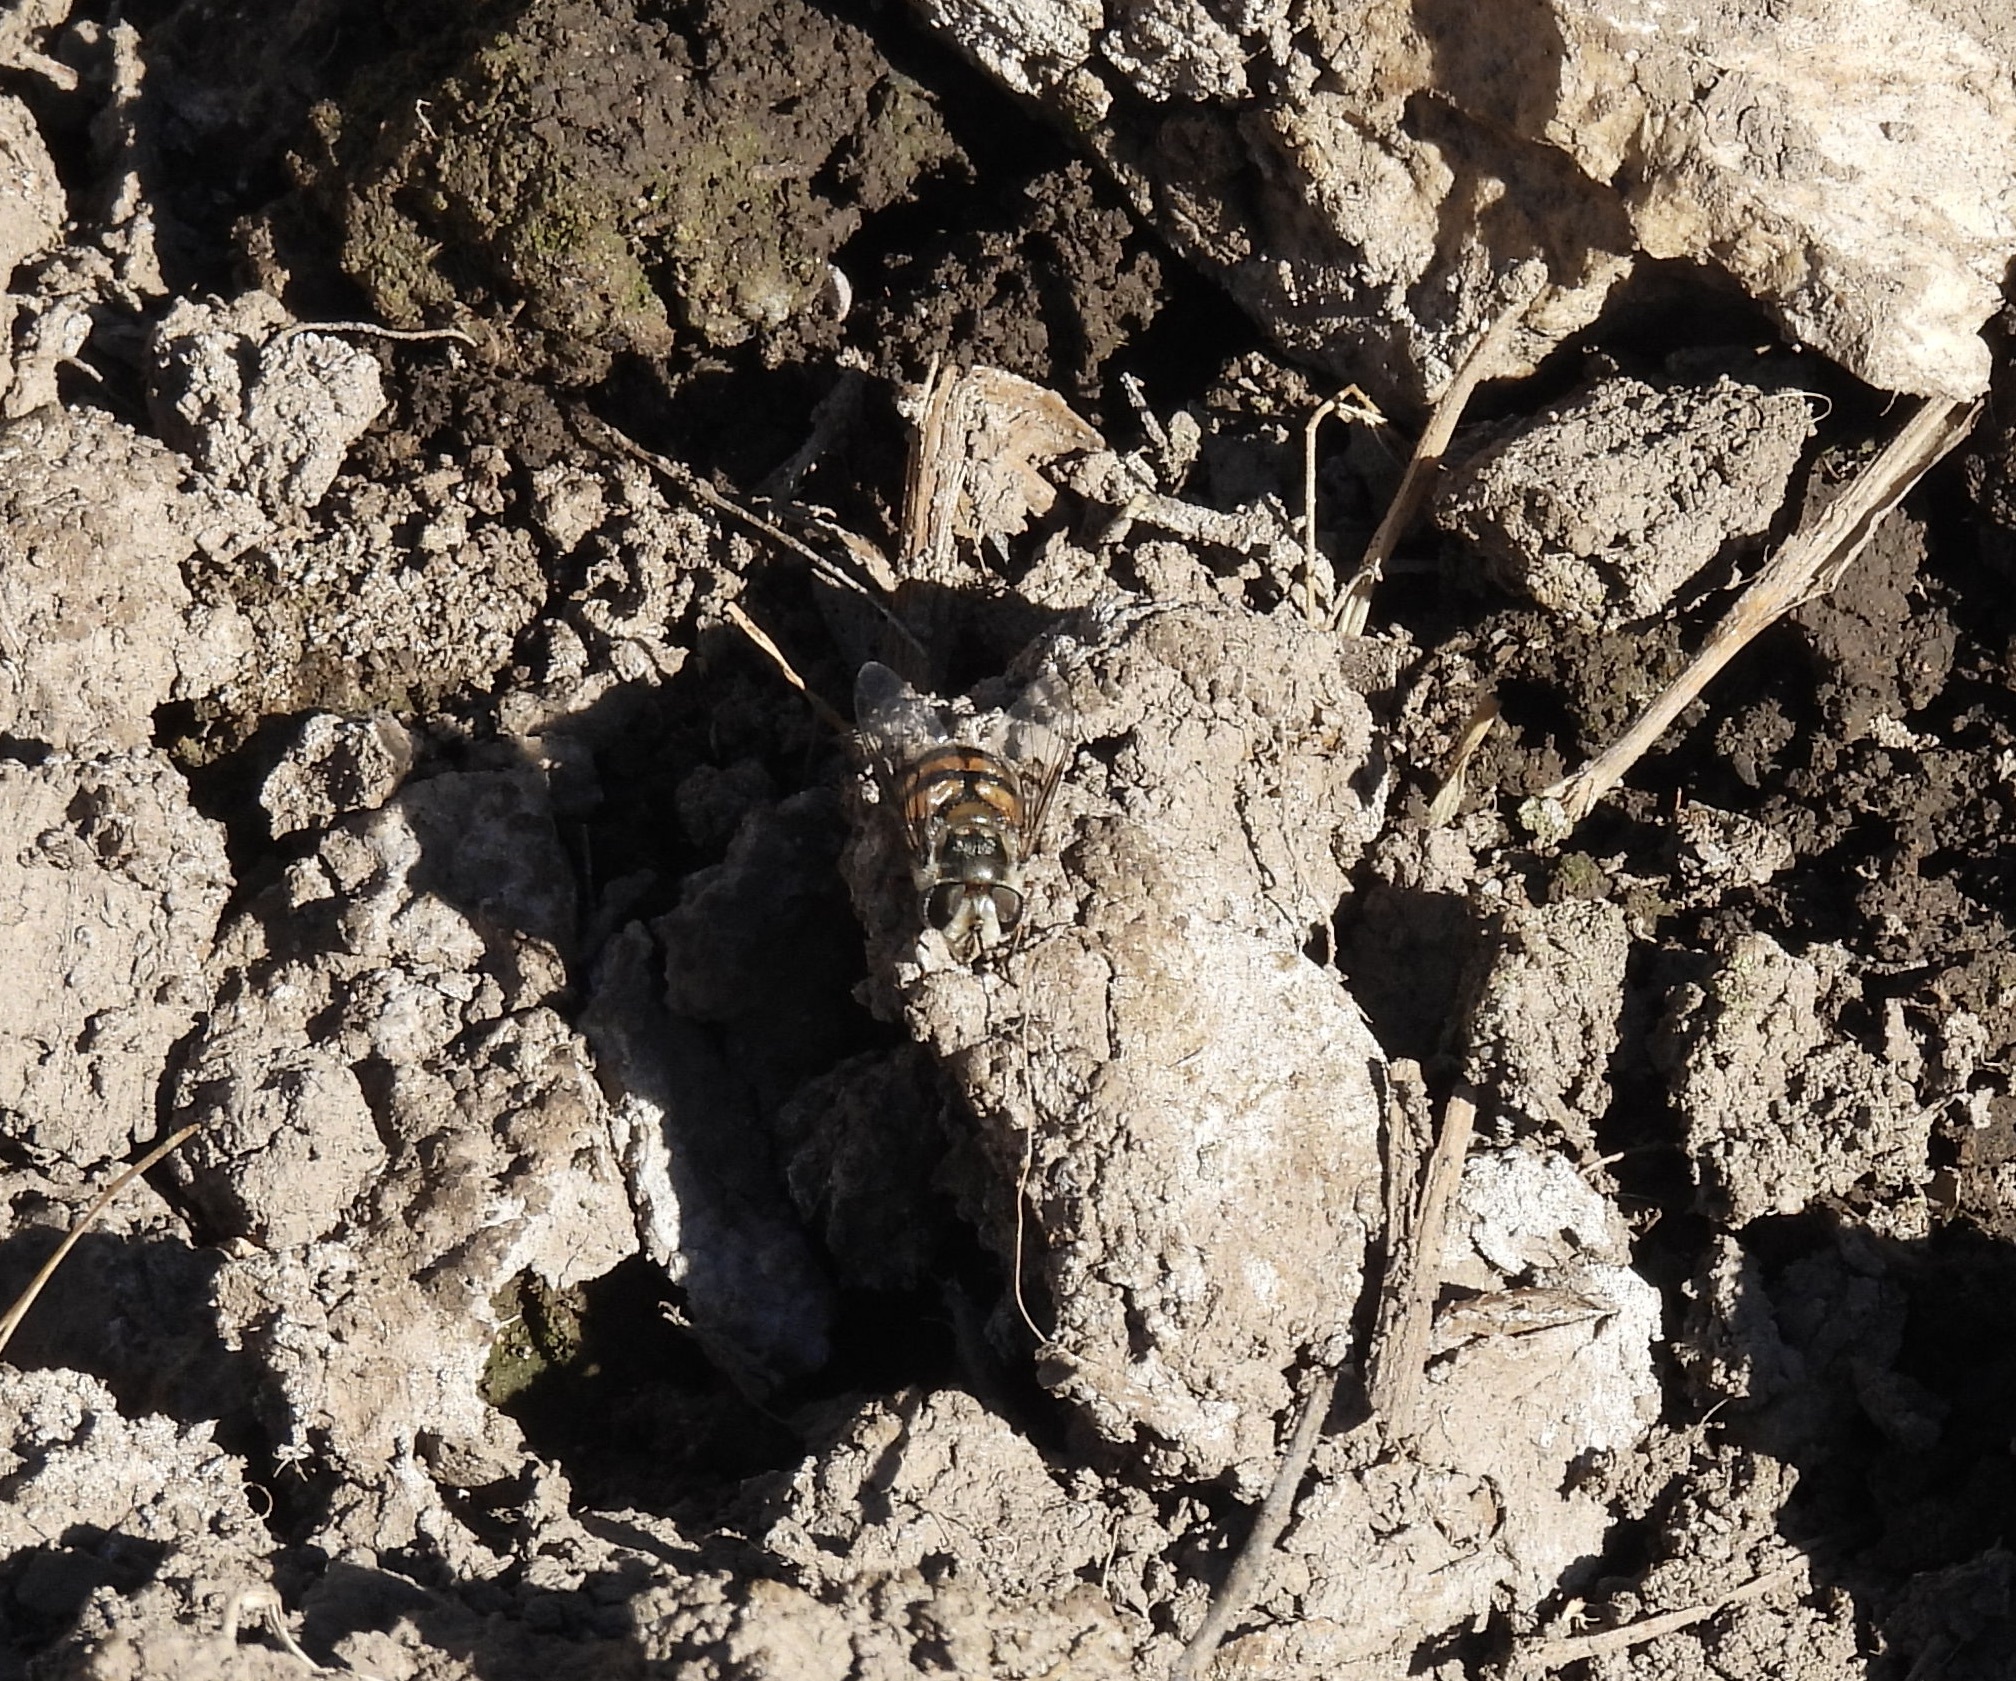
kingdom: Animalia
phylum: Arthropoda
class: Insecta
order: Diptera
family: Syrphidae
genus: Copestylum
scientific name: Copestylum avidum
